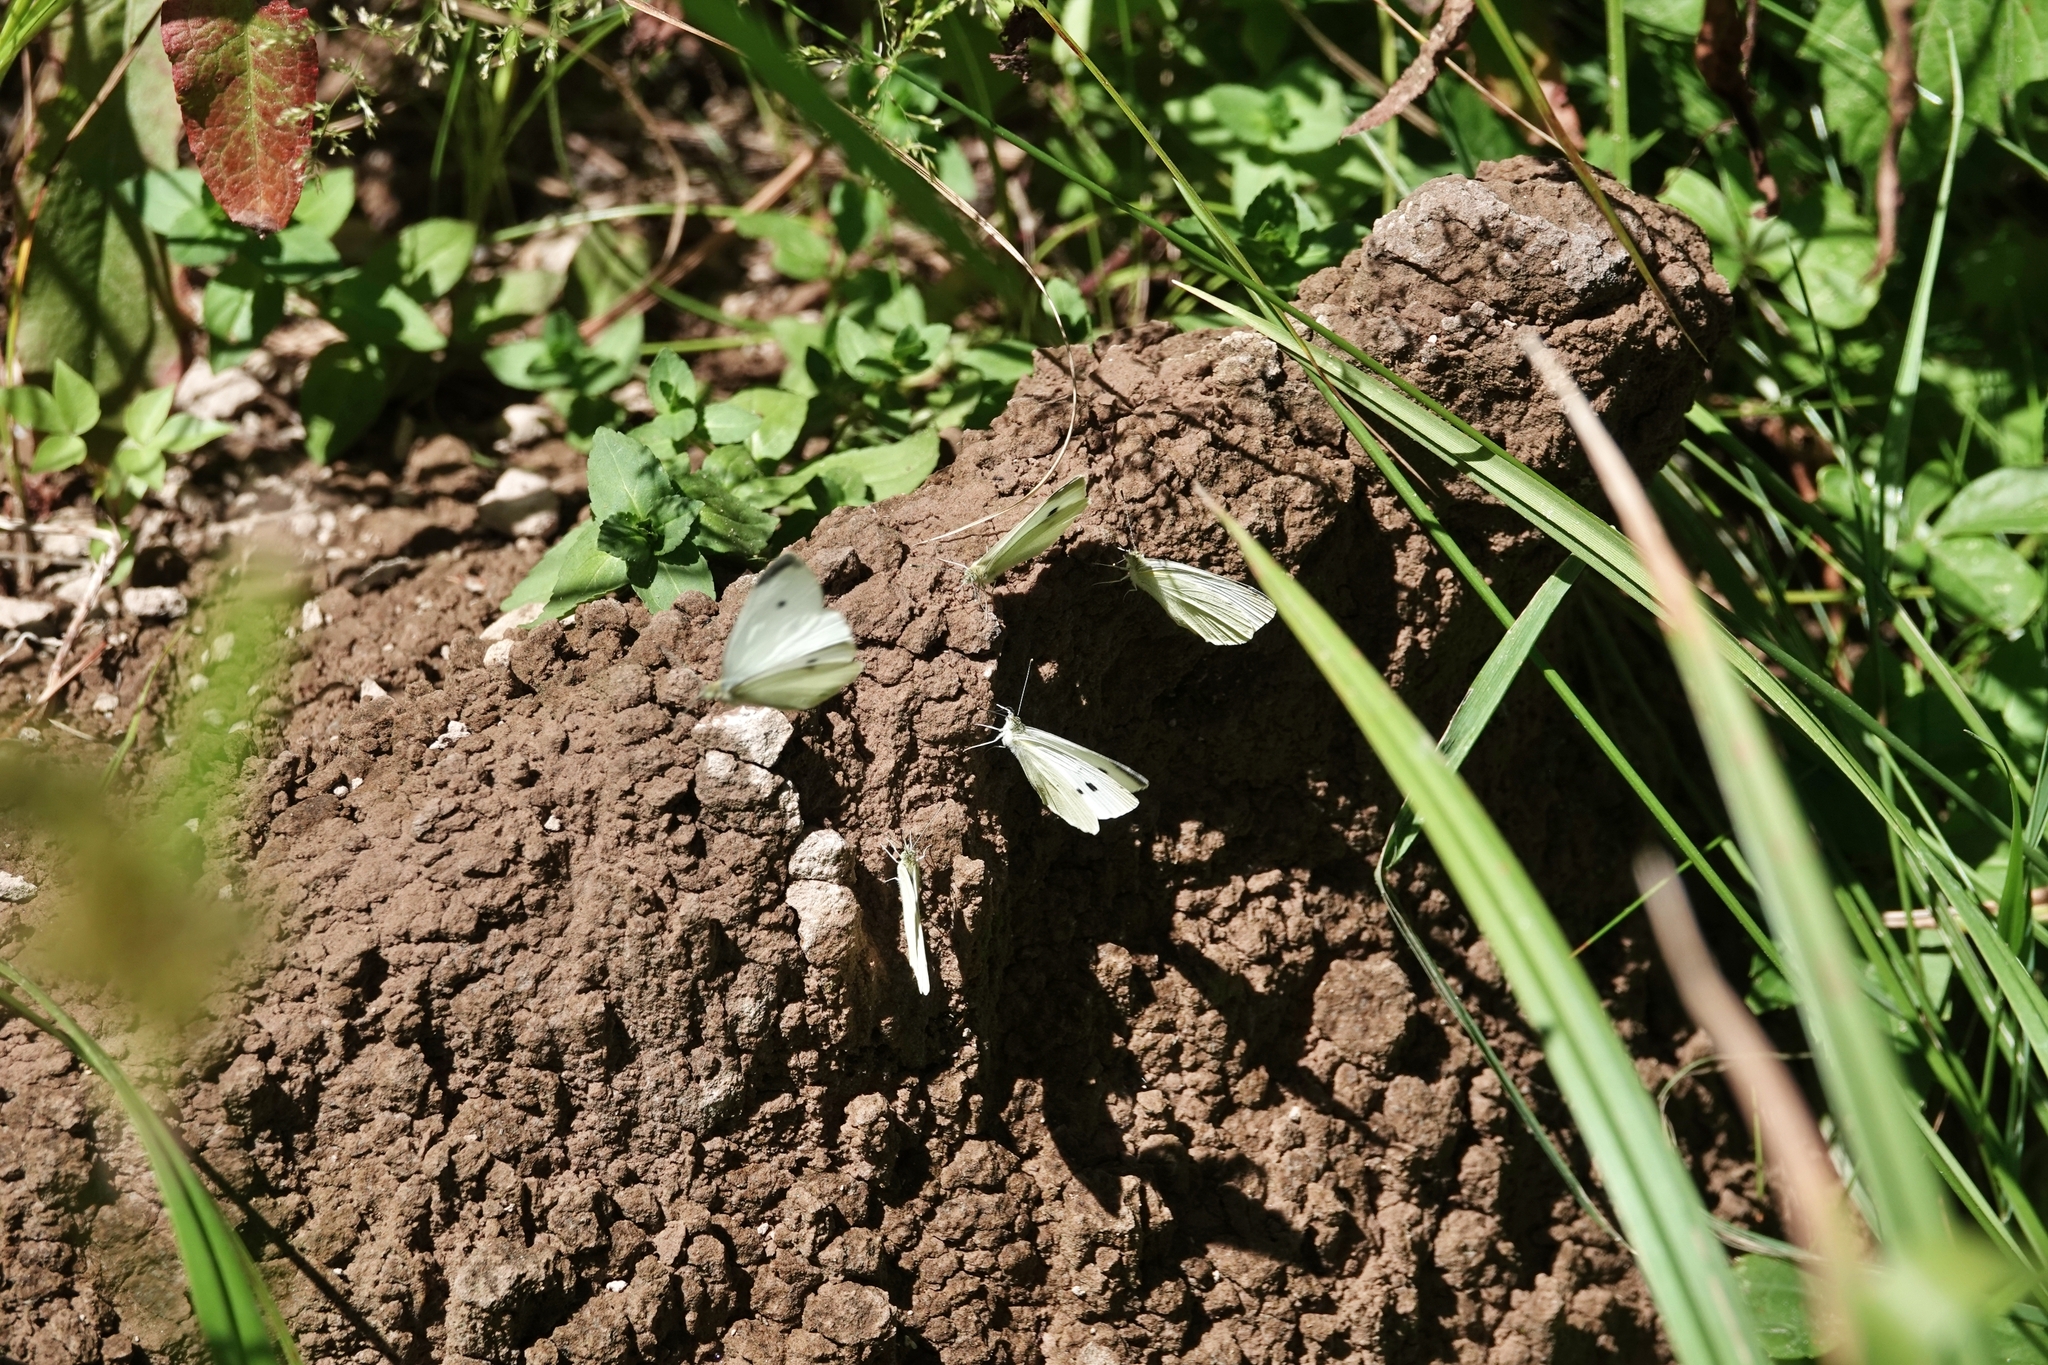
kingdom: Animalia
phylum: Arthropoda
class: Insecta
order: Lepidoptera
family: Pieridae
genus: Pieris
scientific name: Pieris rapae
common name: Small white
